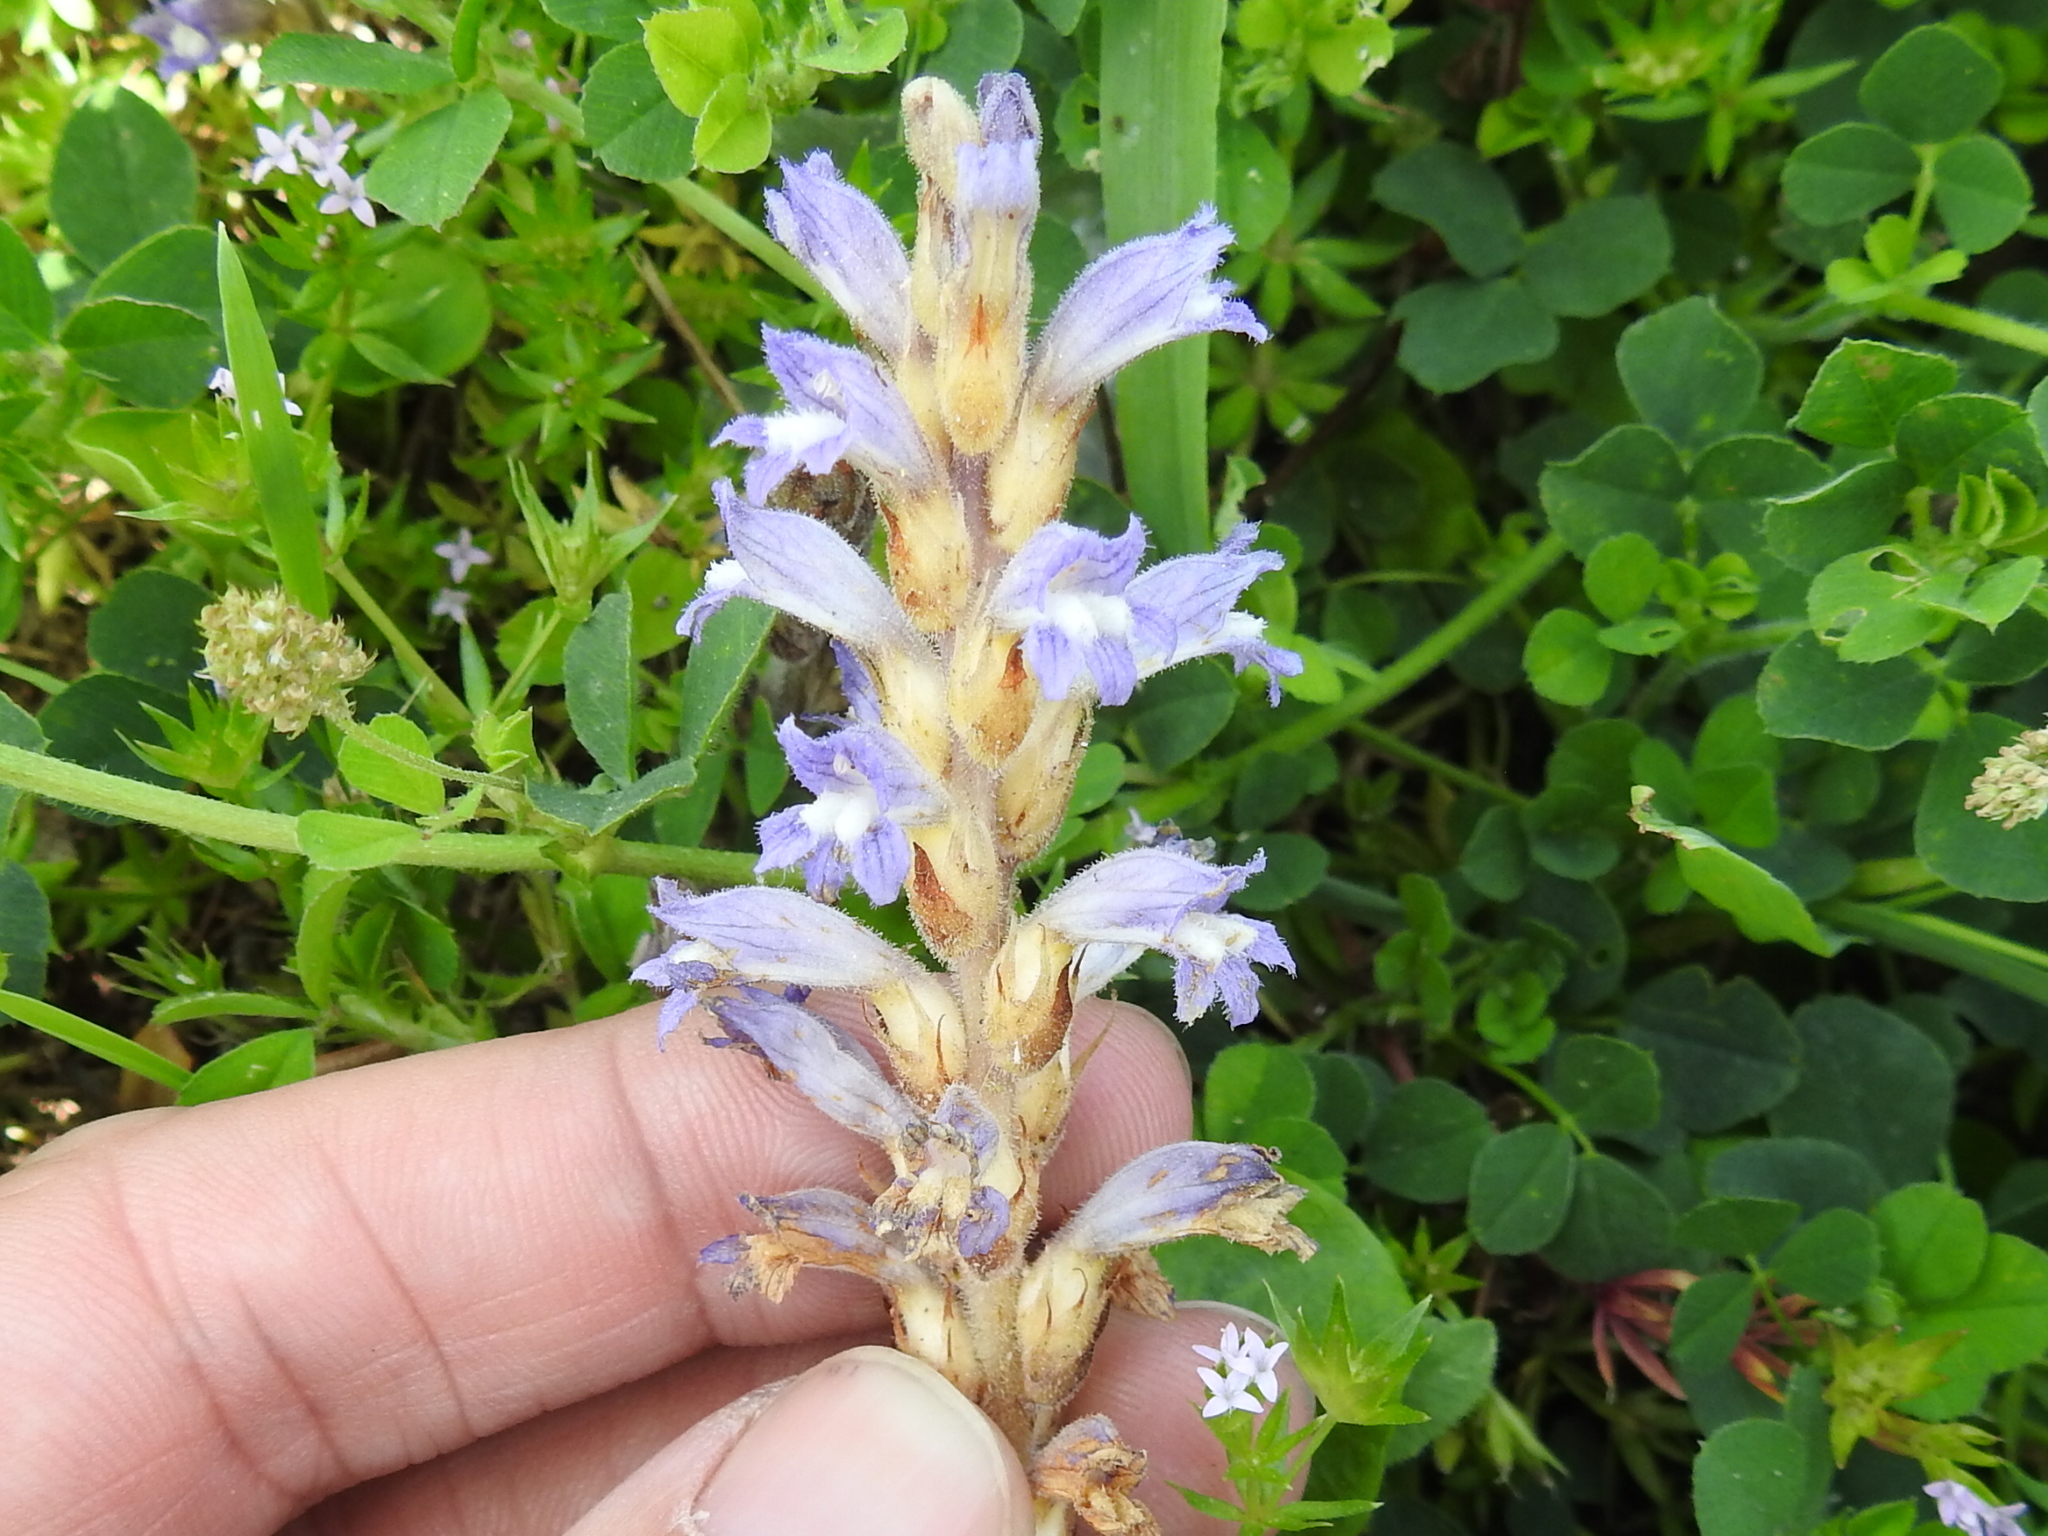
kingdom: Plantae
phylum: Tracheophyta
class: Magnoliopsida
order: Lamiales
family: Orobanchaceae
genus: Phelipanche
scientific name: Phelipanche ramosa
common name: Branched broomrape
